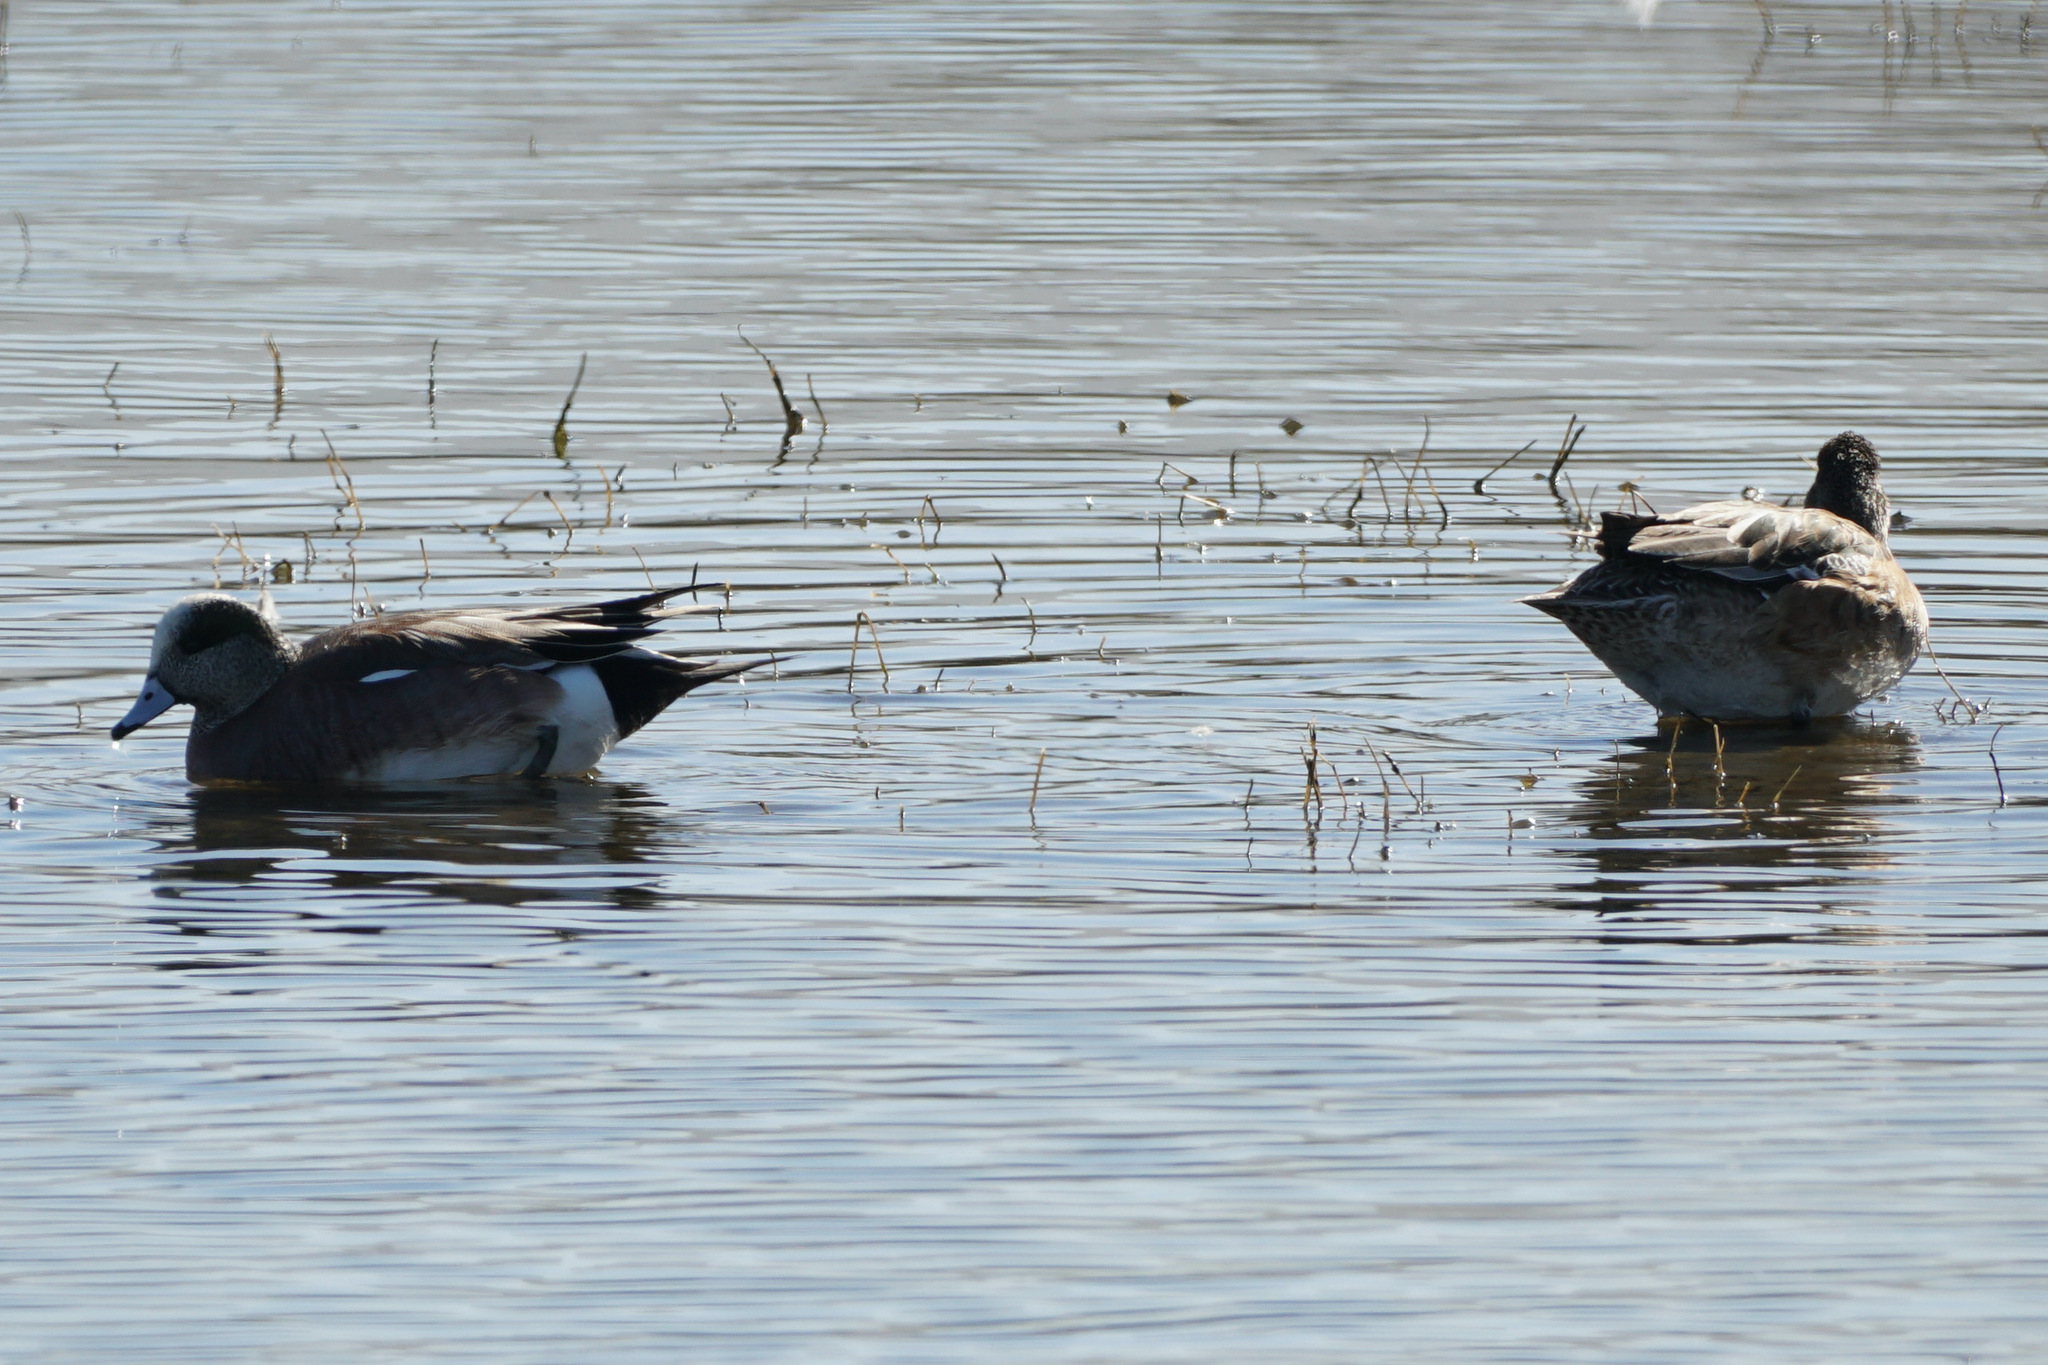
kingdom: Animalia
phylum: Chordata
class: Aves
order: Anseriformes
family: Anatidae
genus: Mareca
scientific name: Mareca americana
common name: American wigeon
